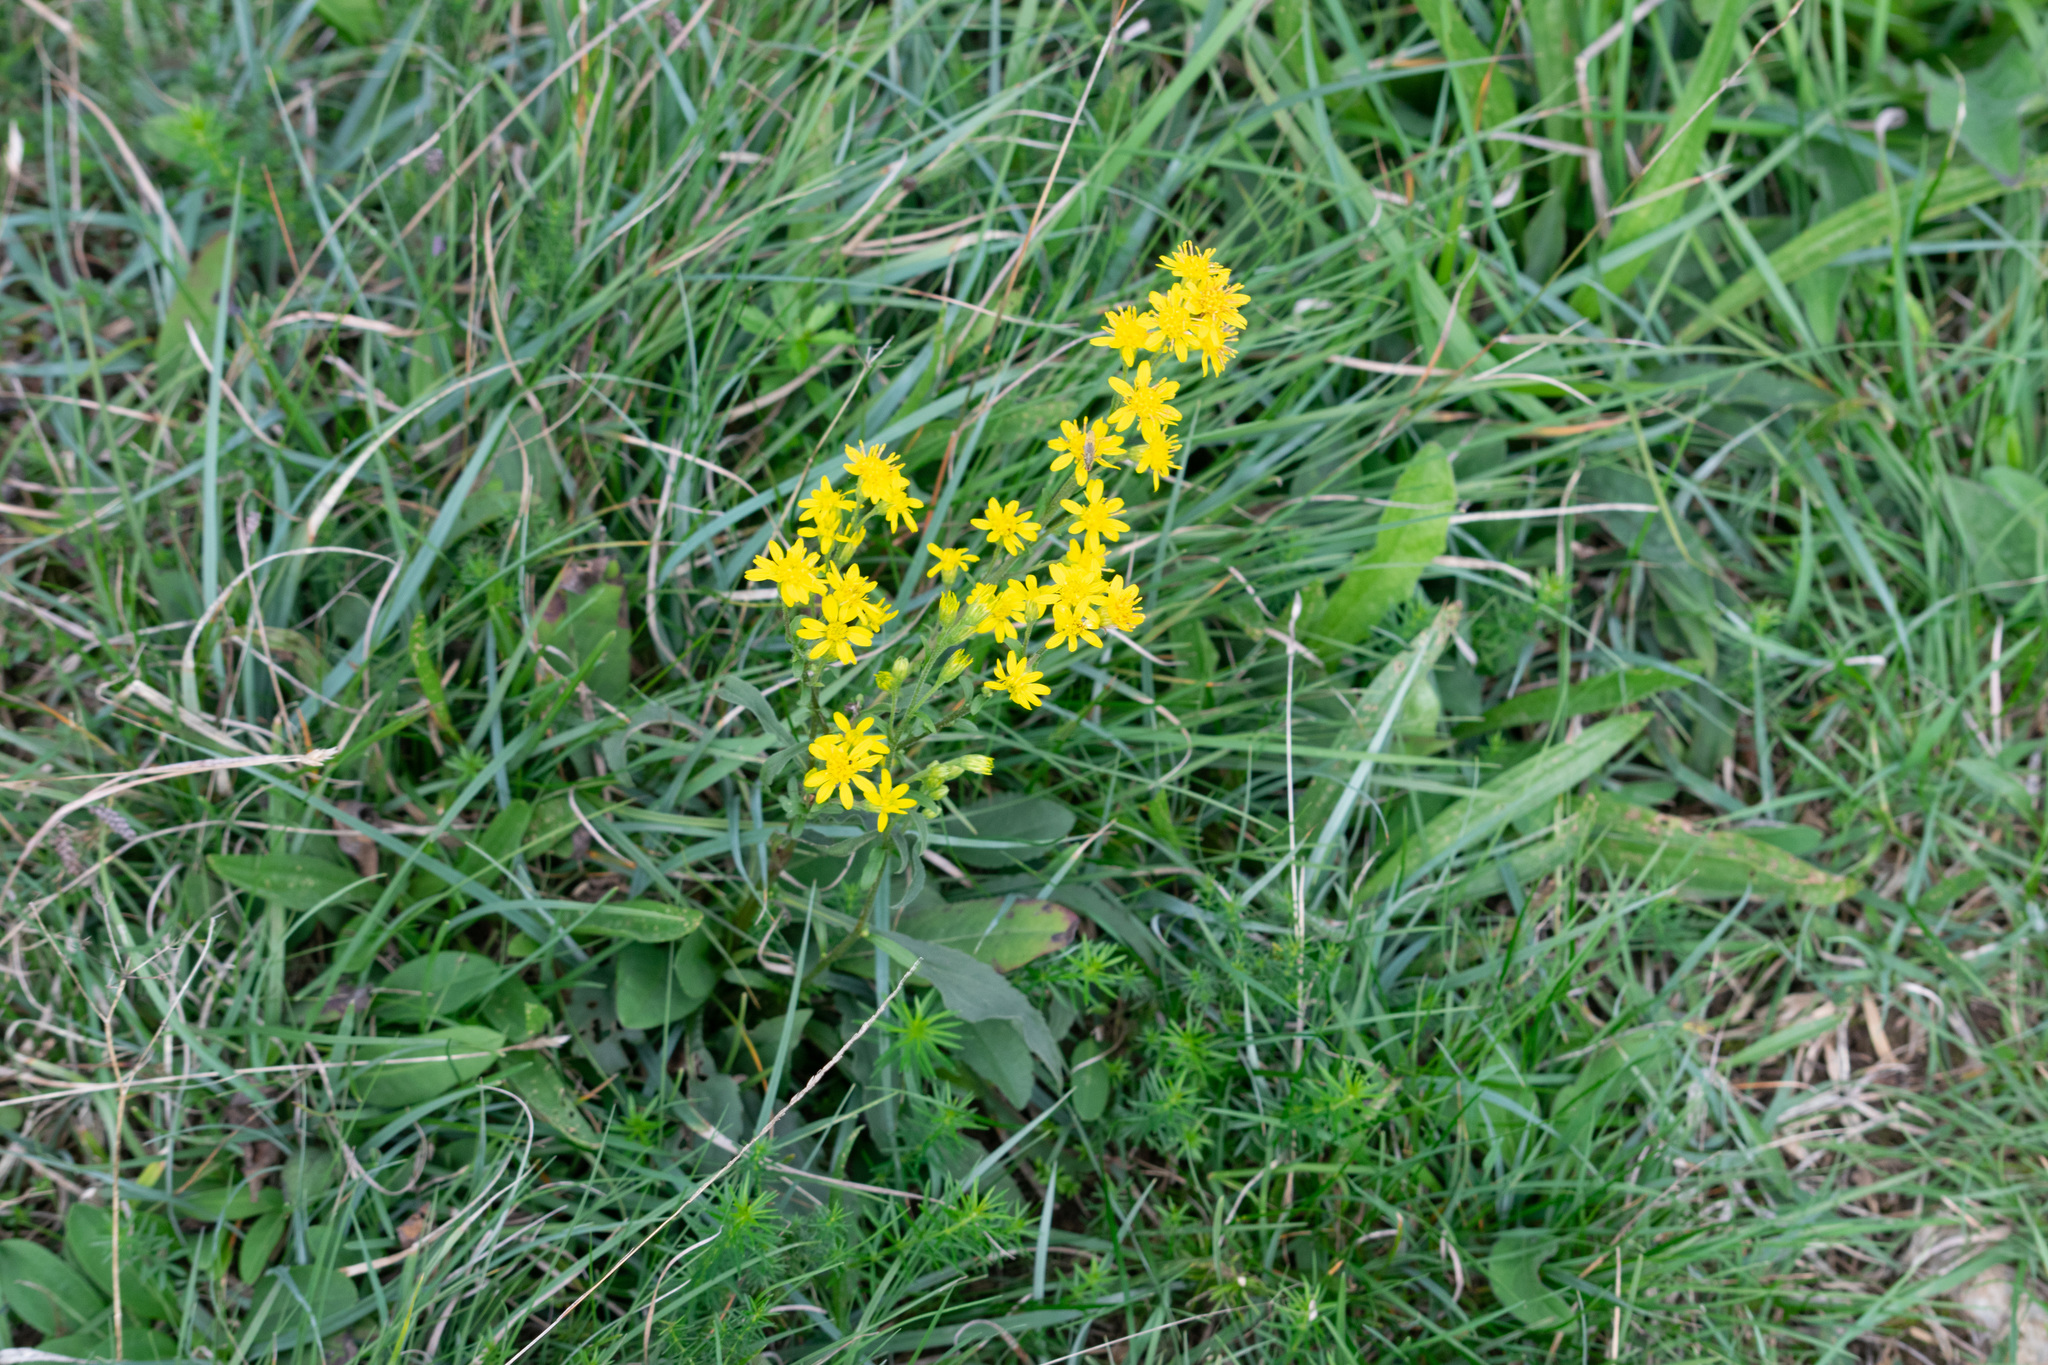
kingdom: Plantae
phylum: Tracheophyta
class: Magnoliopsida
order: Asterales
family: Asteraceae
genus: Solidago
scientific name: Solidago virgaurea
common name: Goldenrod
